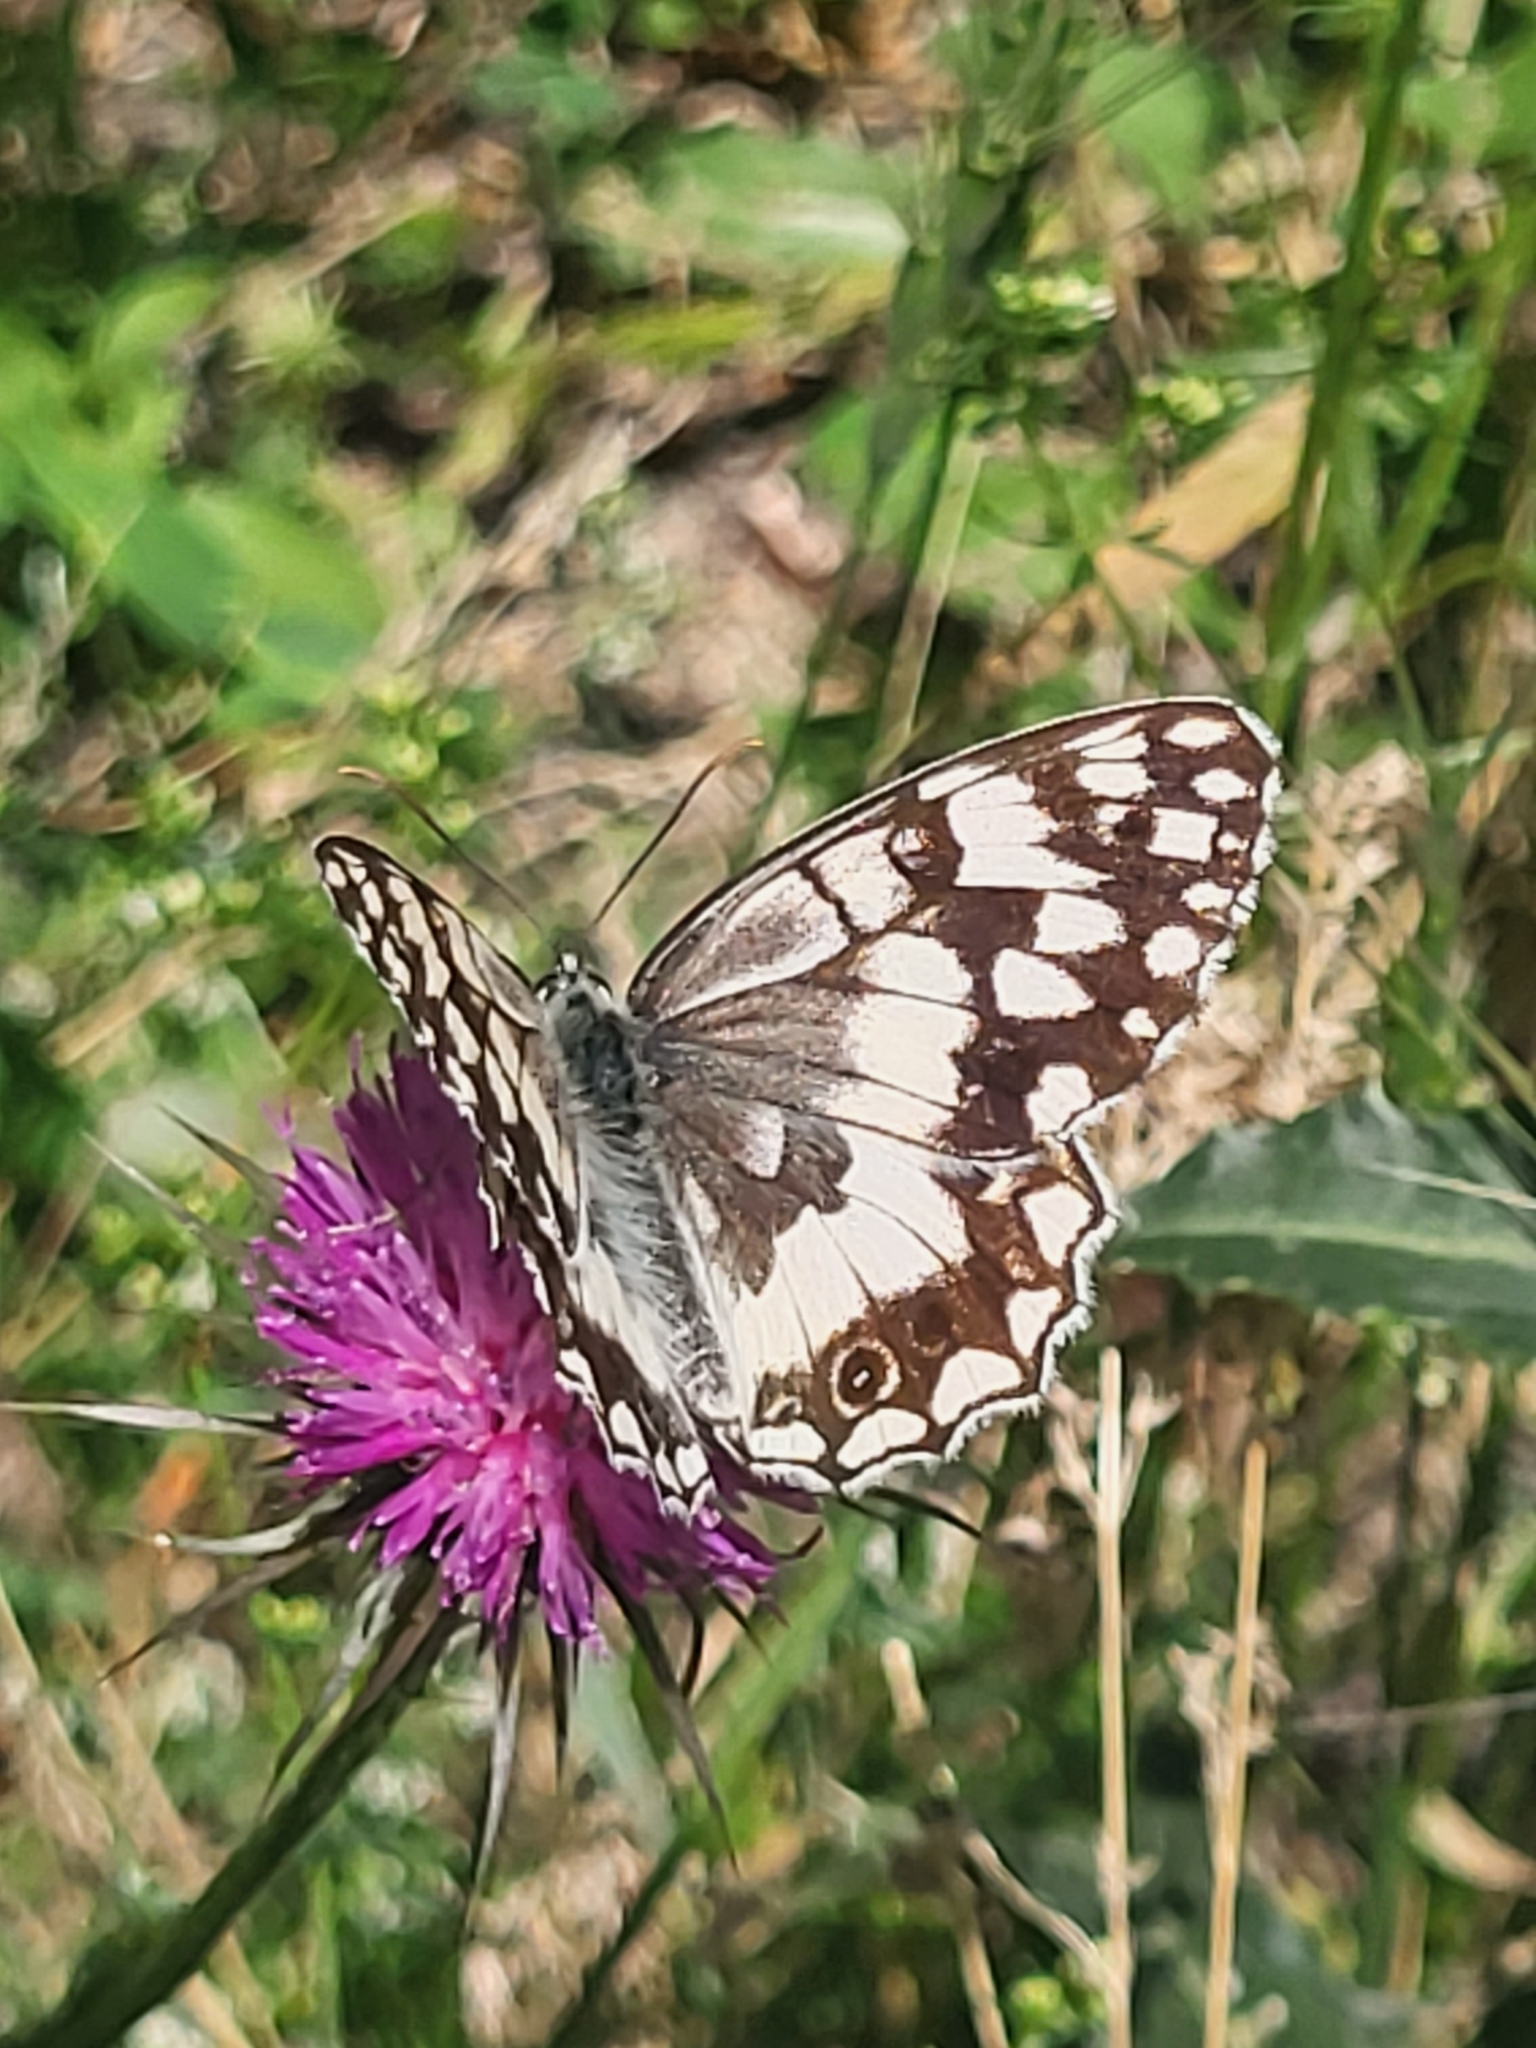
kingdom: Animalia
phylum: Arthropoda
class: Insecta
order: Lepidoptera
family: Nymphalidae
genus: Melanargia
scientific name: Melanargia larissa
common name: Balkan marbled white
